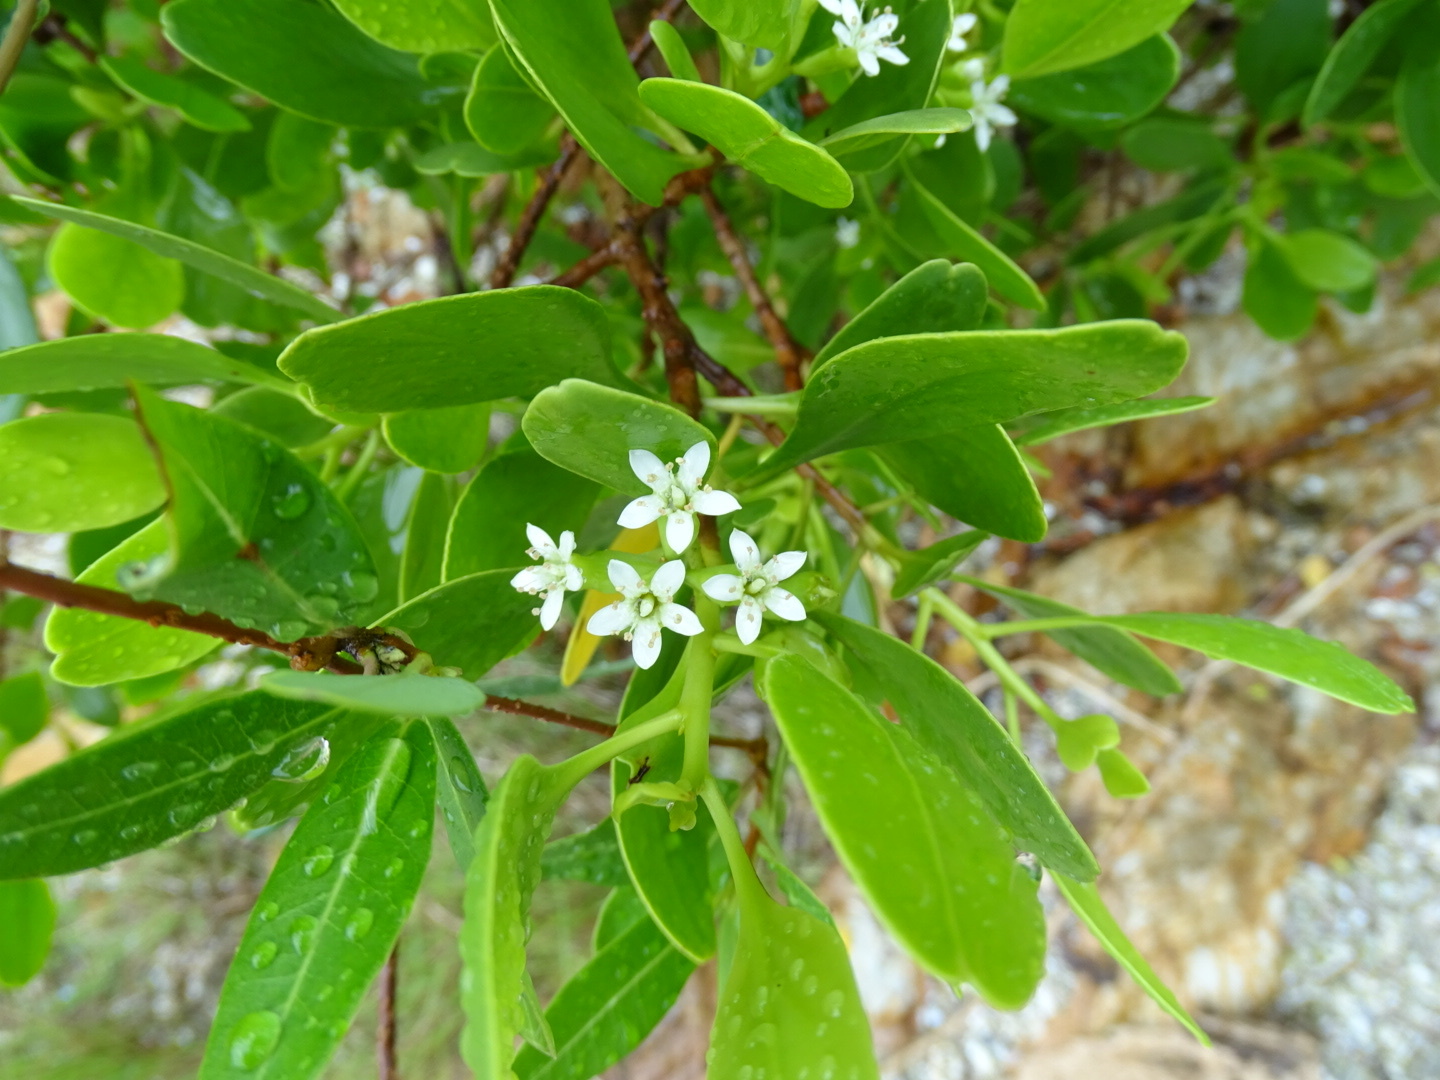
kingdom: Plantae
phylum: Tracheophyta
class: Magnoliopsida
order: Myrtales
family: Combretaceae
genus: Lumnitzera
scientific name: Lumnitzera racemosa
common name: White-flowered black mangrove
